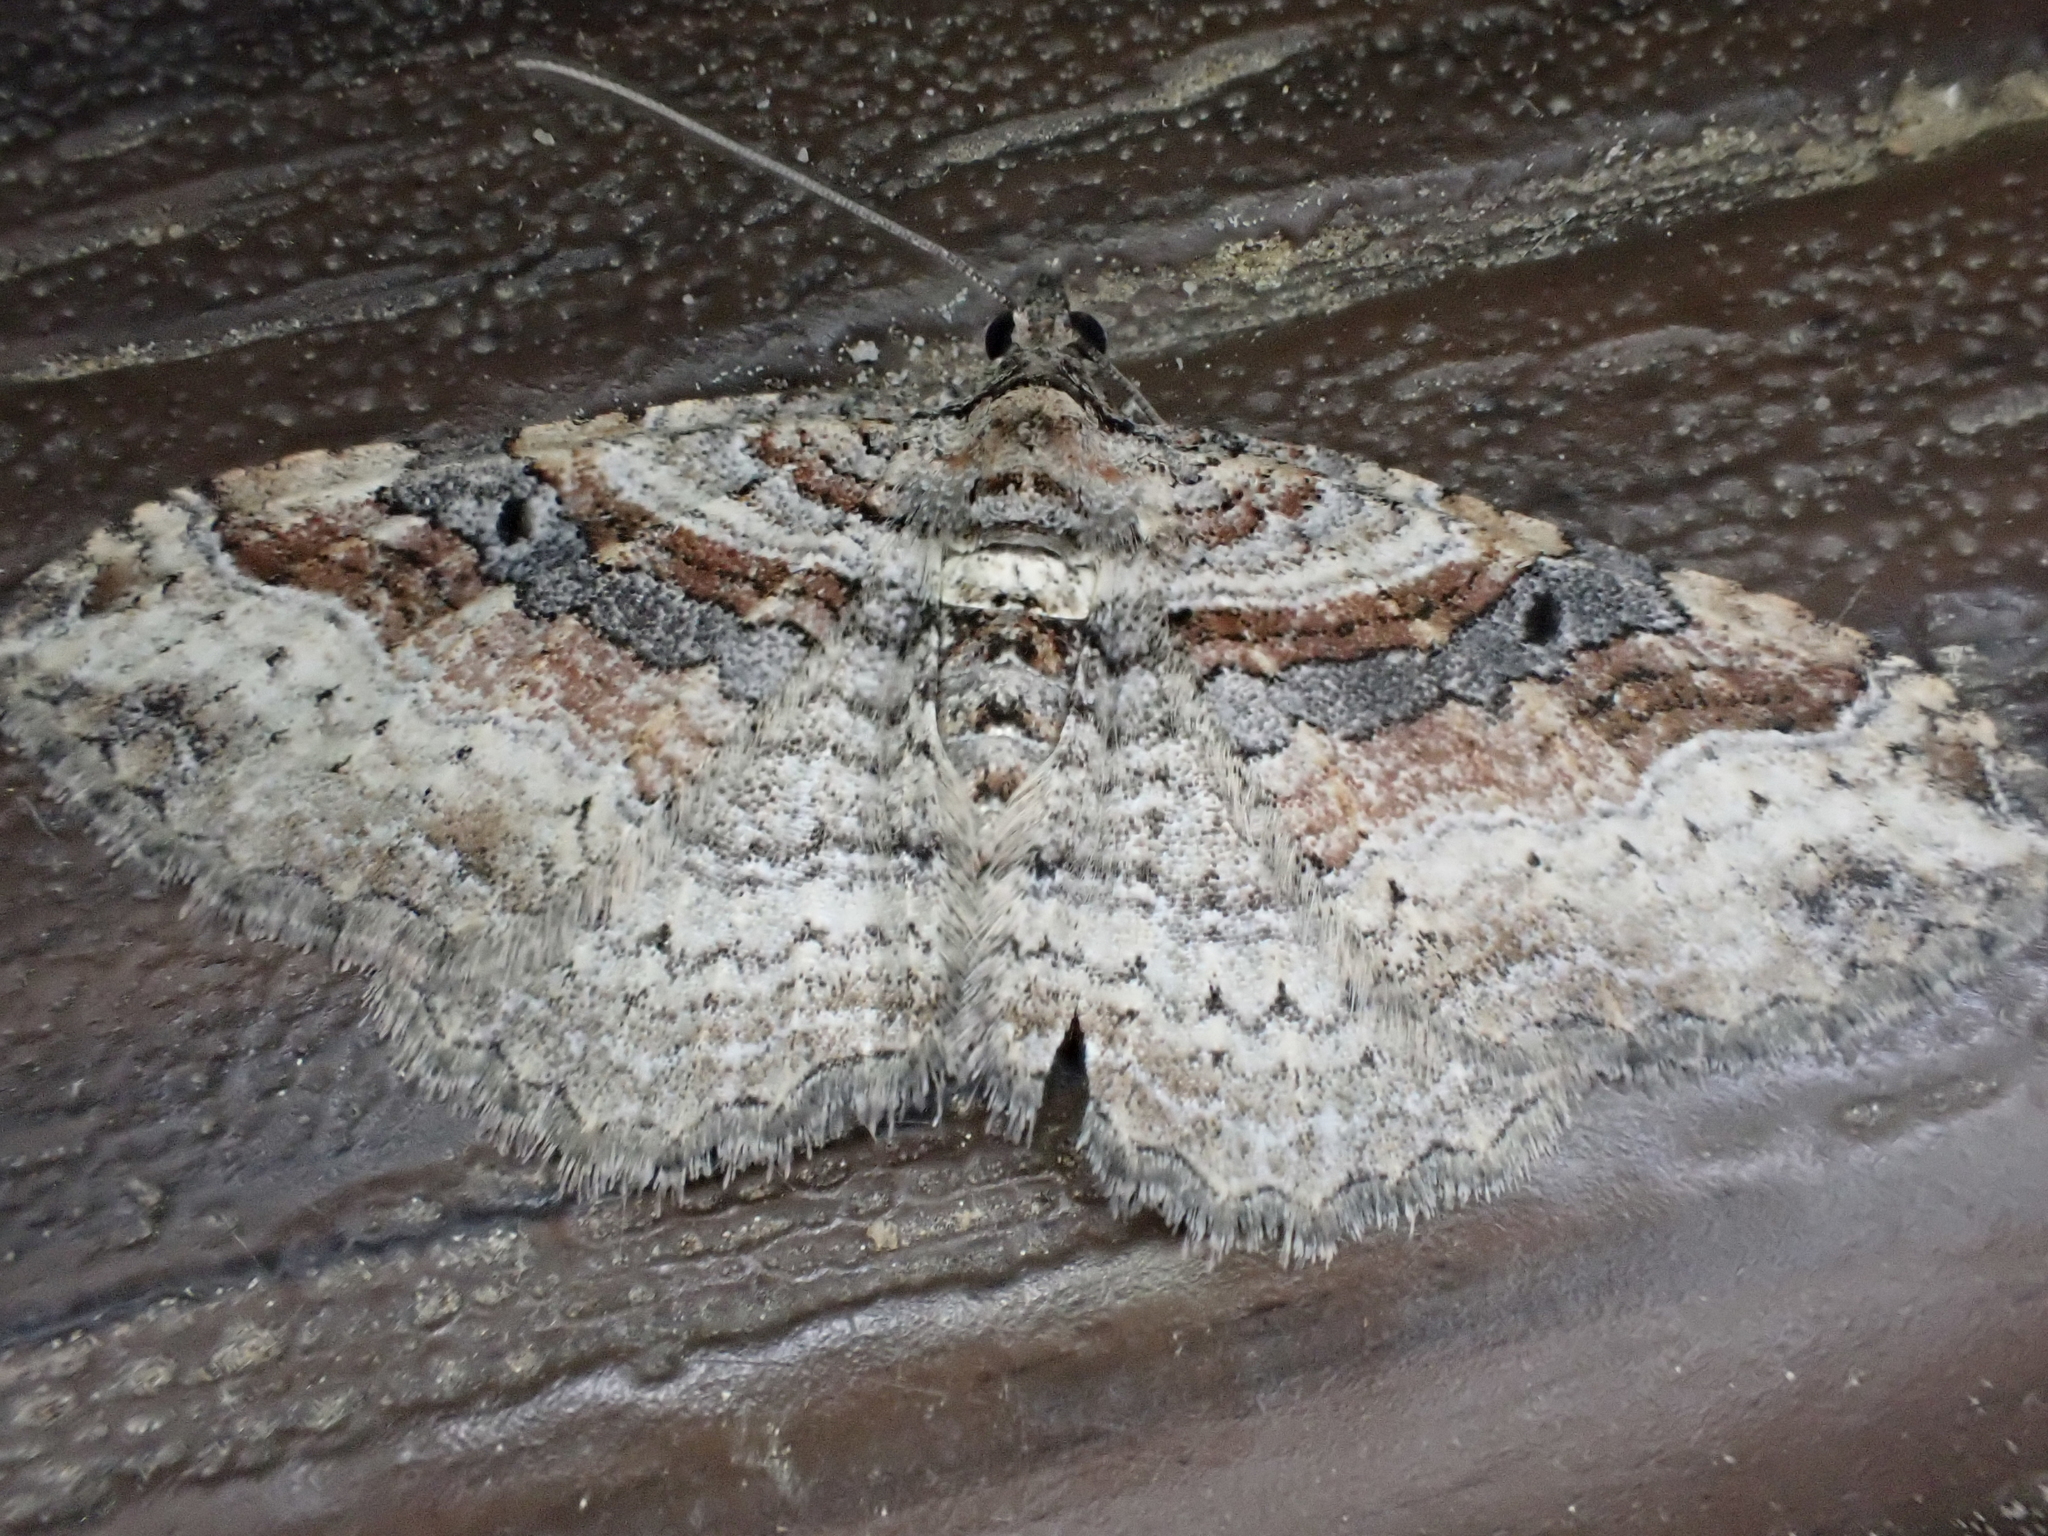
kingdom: Animalia
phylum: Arthropoda
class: Insecta
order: Lepidoptera
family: Geometridae
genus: Costaconvexa
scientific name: Costaconvexa centrostrigaria
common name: Bent-line carpet
